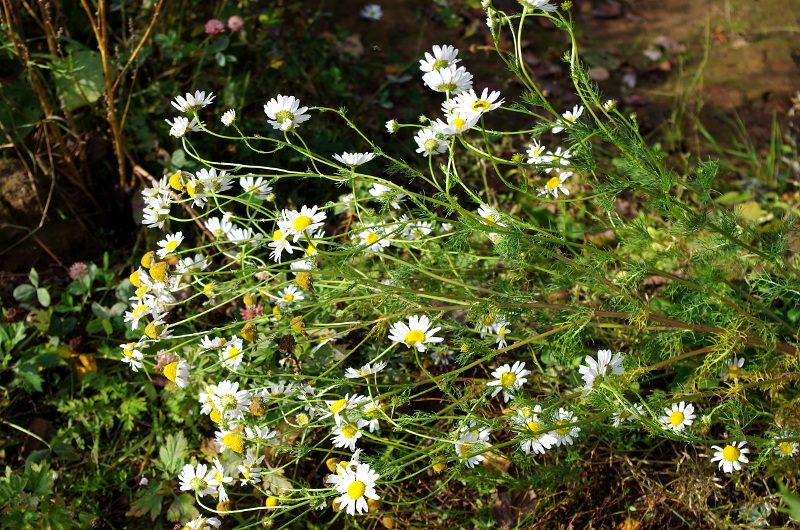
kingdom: Plantae
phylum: Tracheophyta
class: Magnoliopsida
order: Asterales
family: Asteraceae
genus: Tripleurospermum
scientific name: Tripleurospermum inodorum
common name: Scentless mayweed
